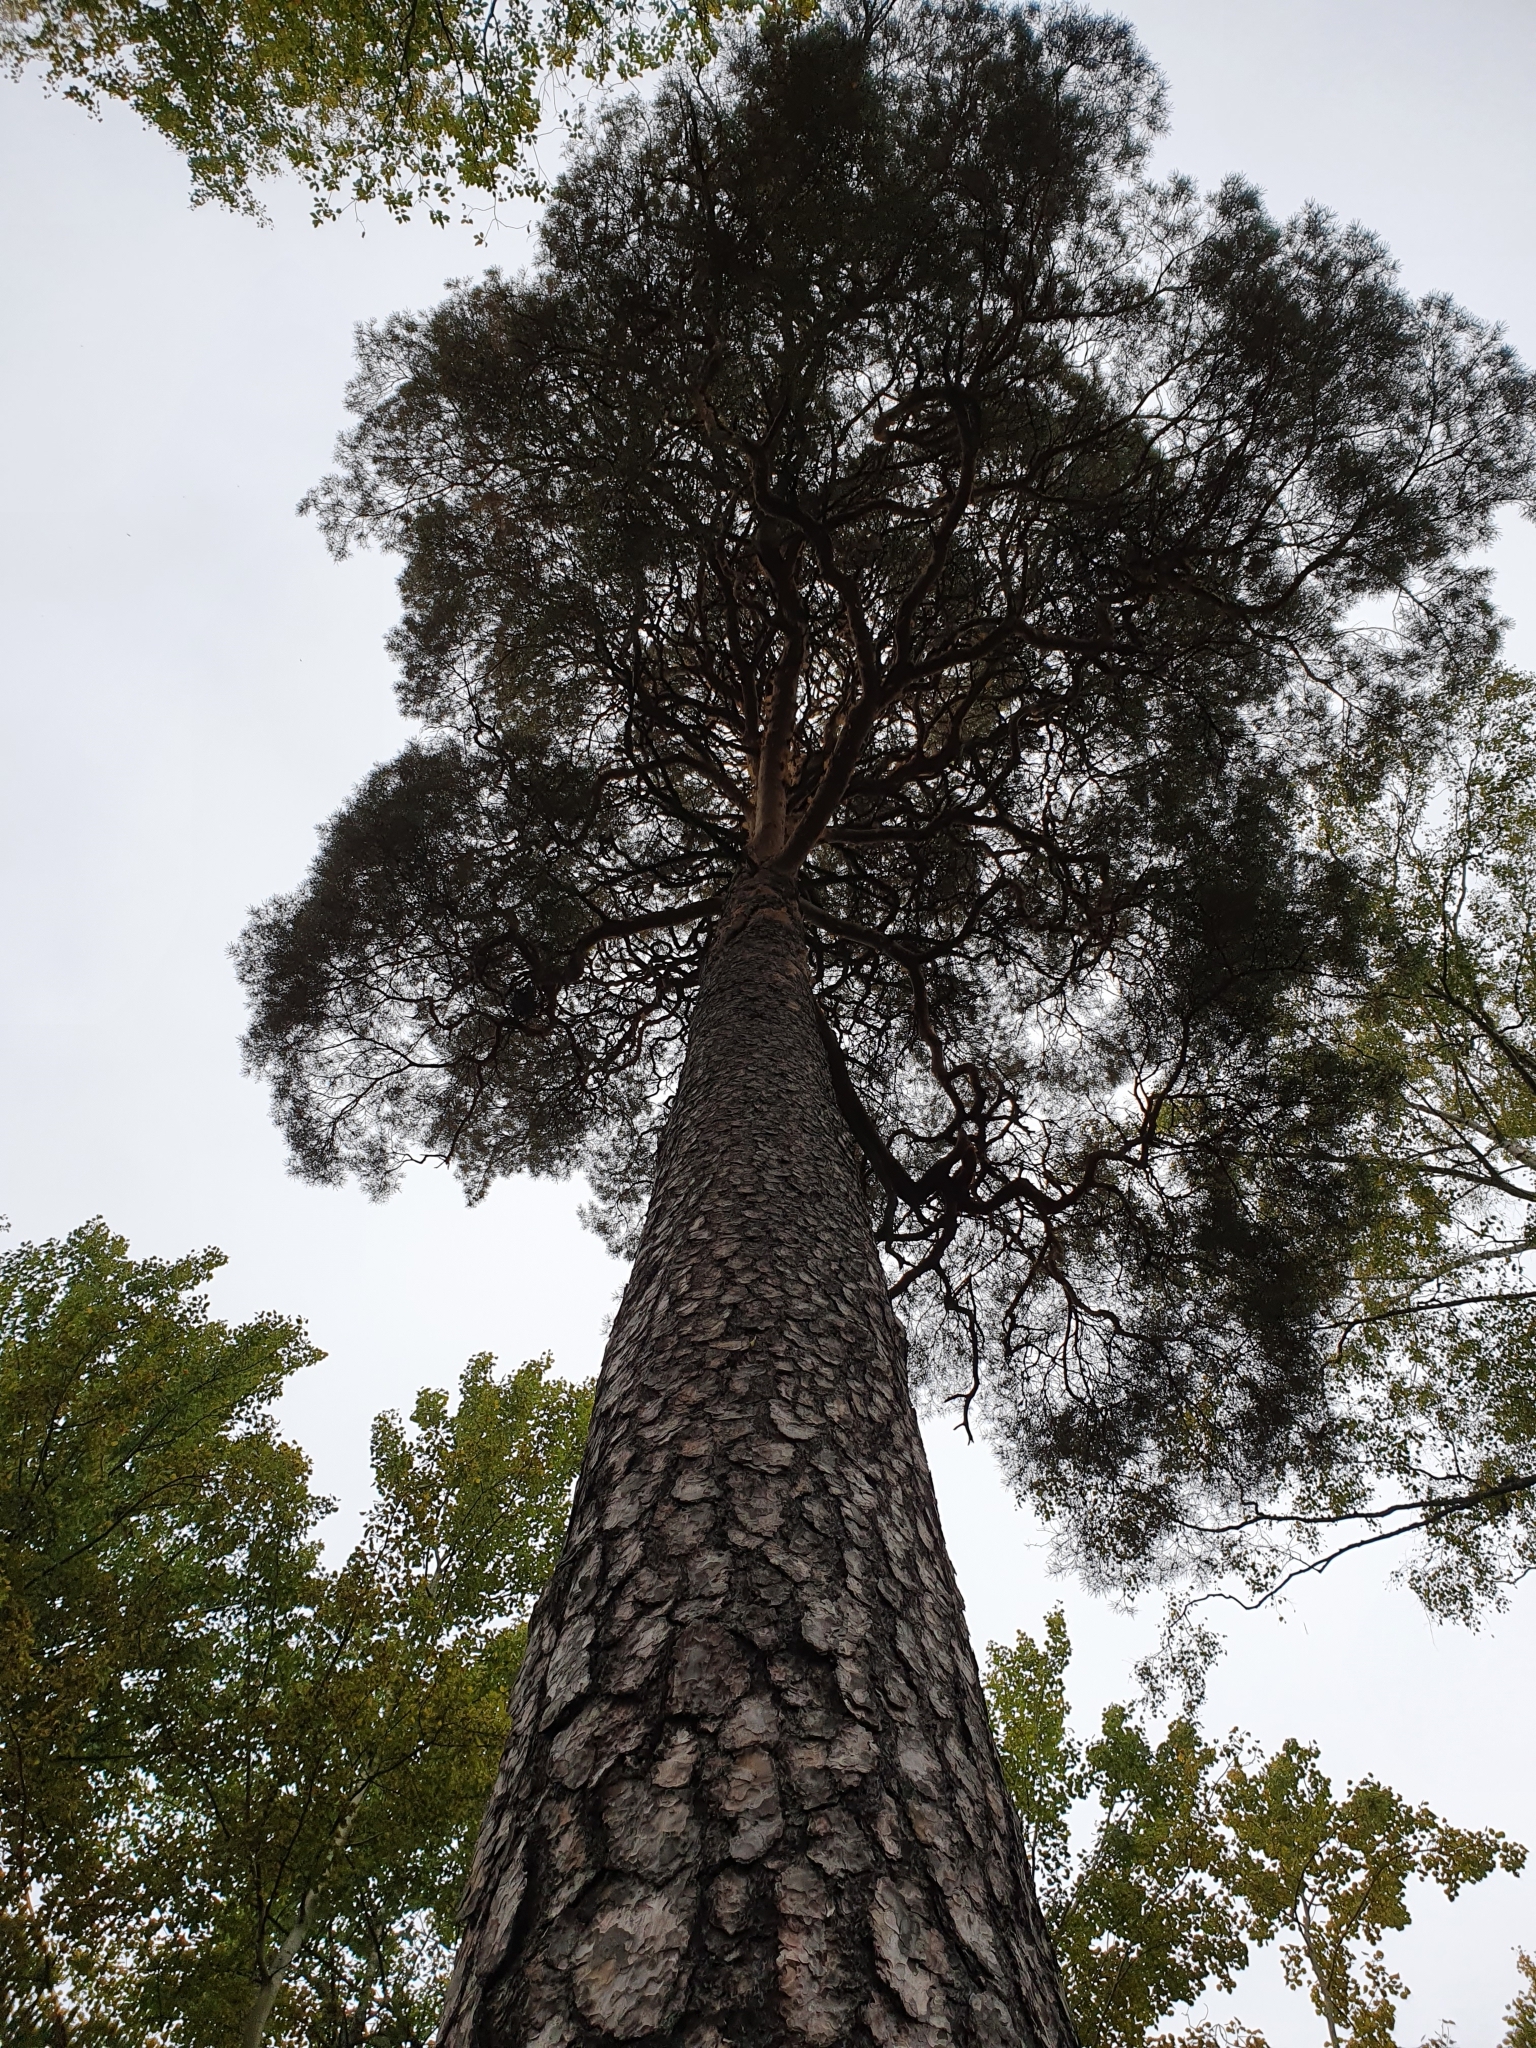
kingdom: Plantae
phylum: Tracheophyta
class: Pinopsida
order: Pinales
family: Pinaceae
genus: Pinus
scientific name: Pinus sylvestris
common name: Scots pine
